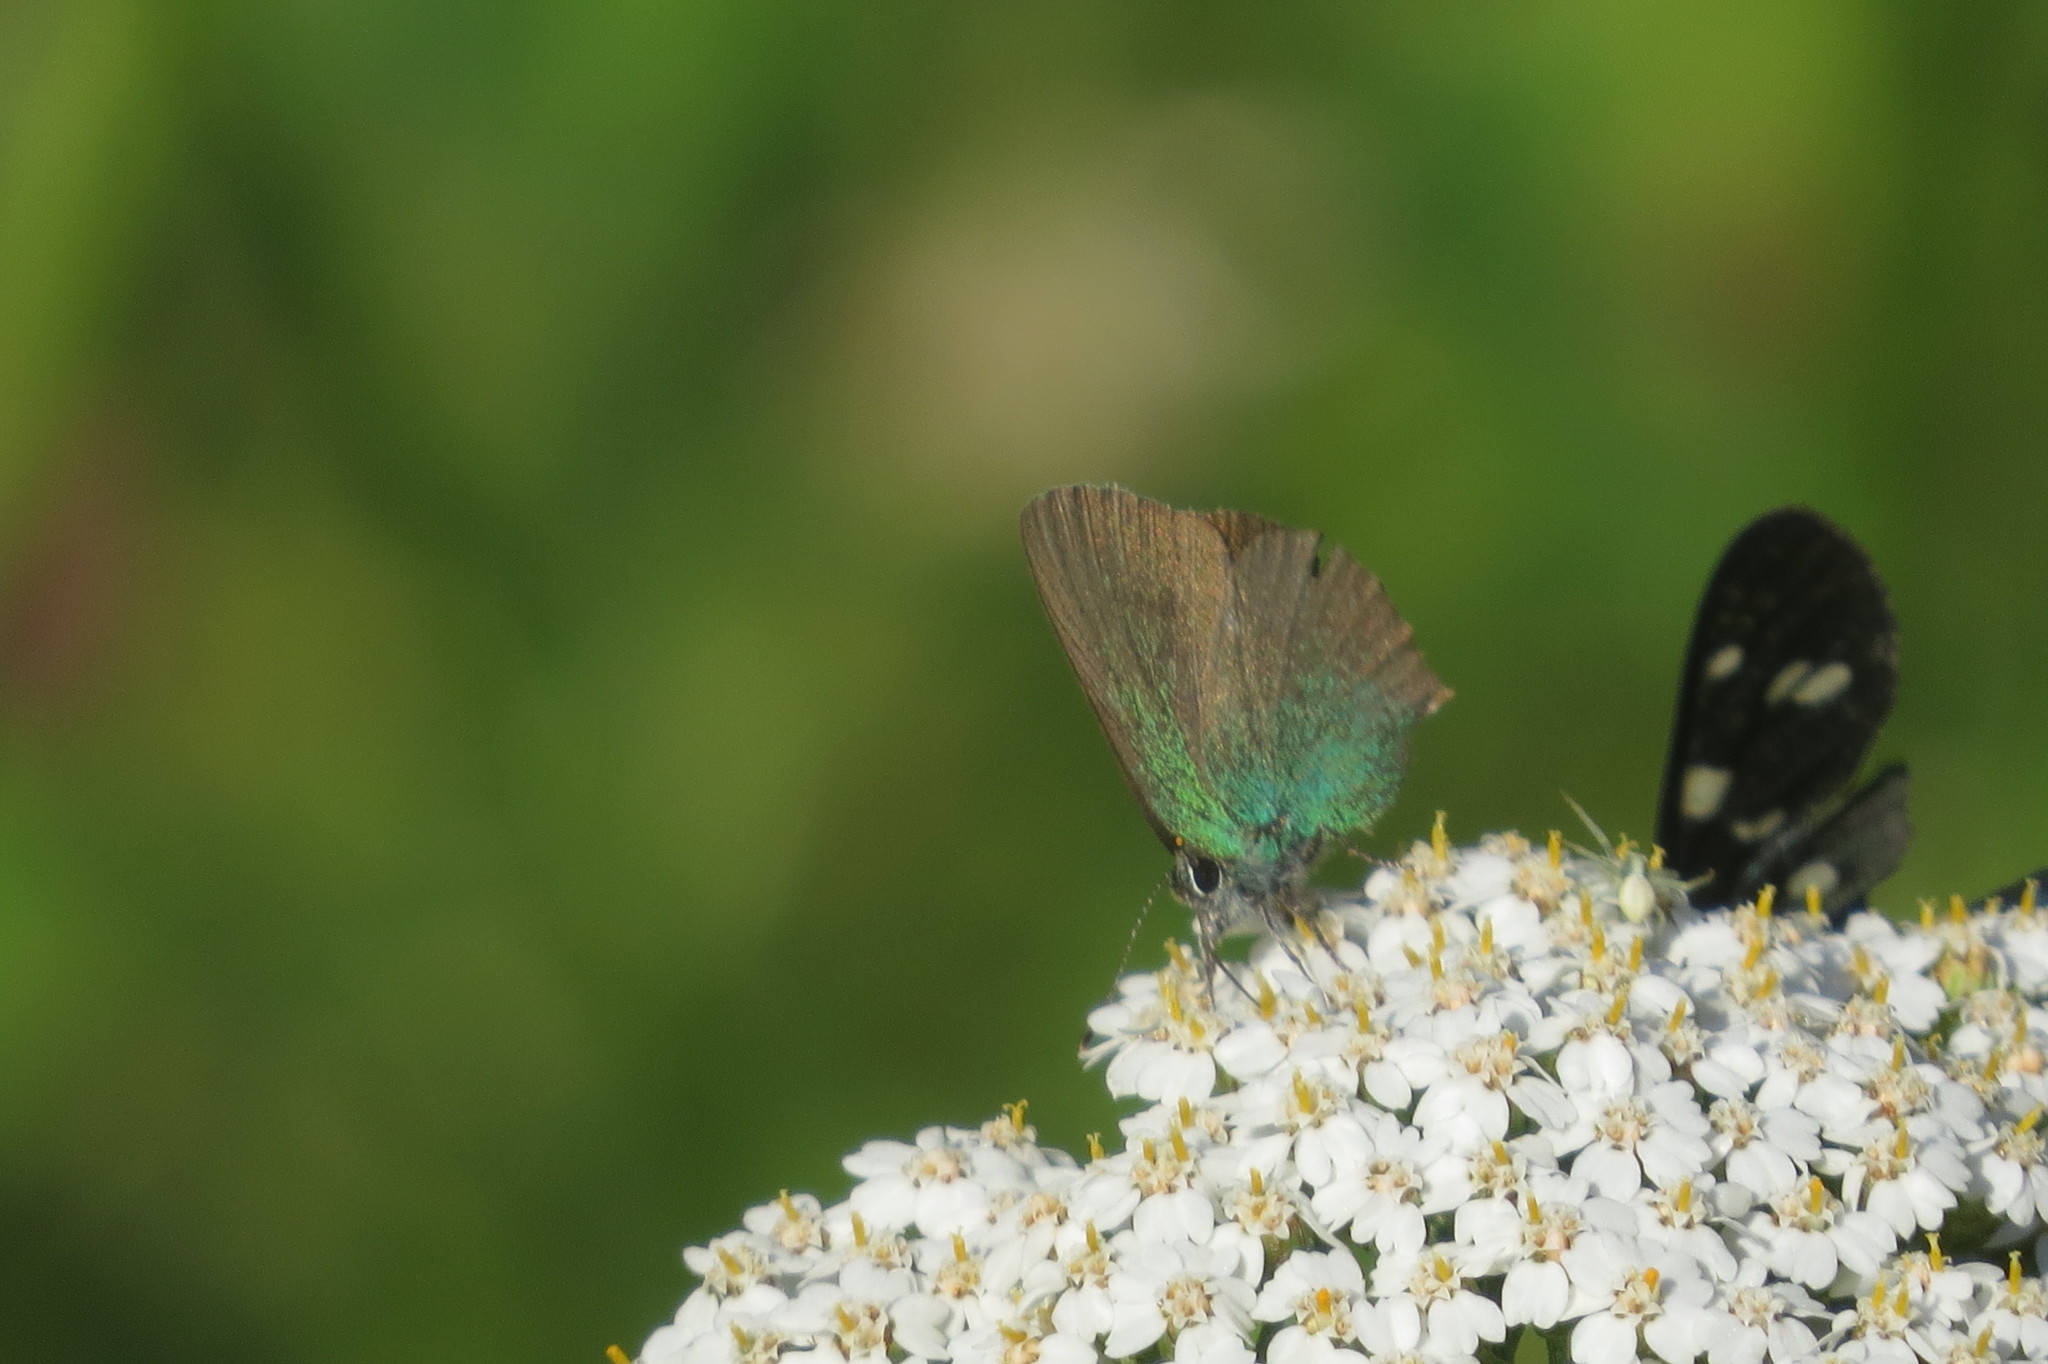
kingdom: Animalia
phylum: Arthropoda
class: Insecta
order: Lepidoptera
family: Lycaenidae
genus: Callophrys
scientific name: Callophrys rubi
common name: Green hairstreak
